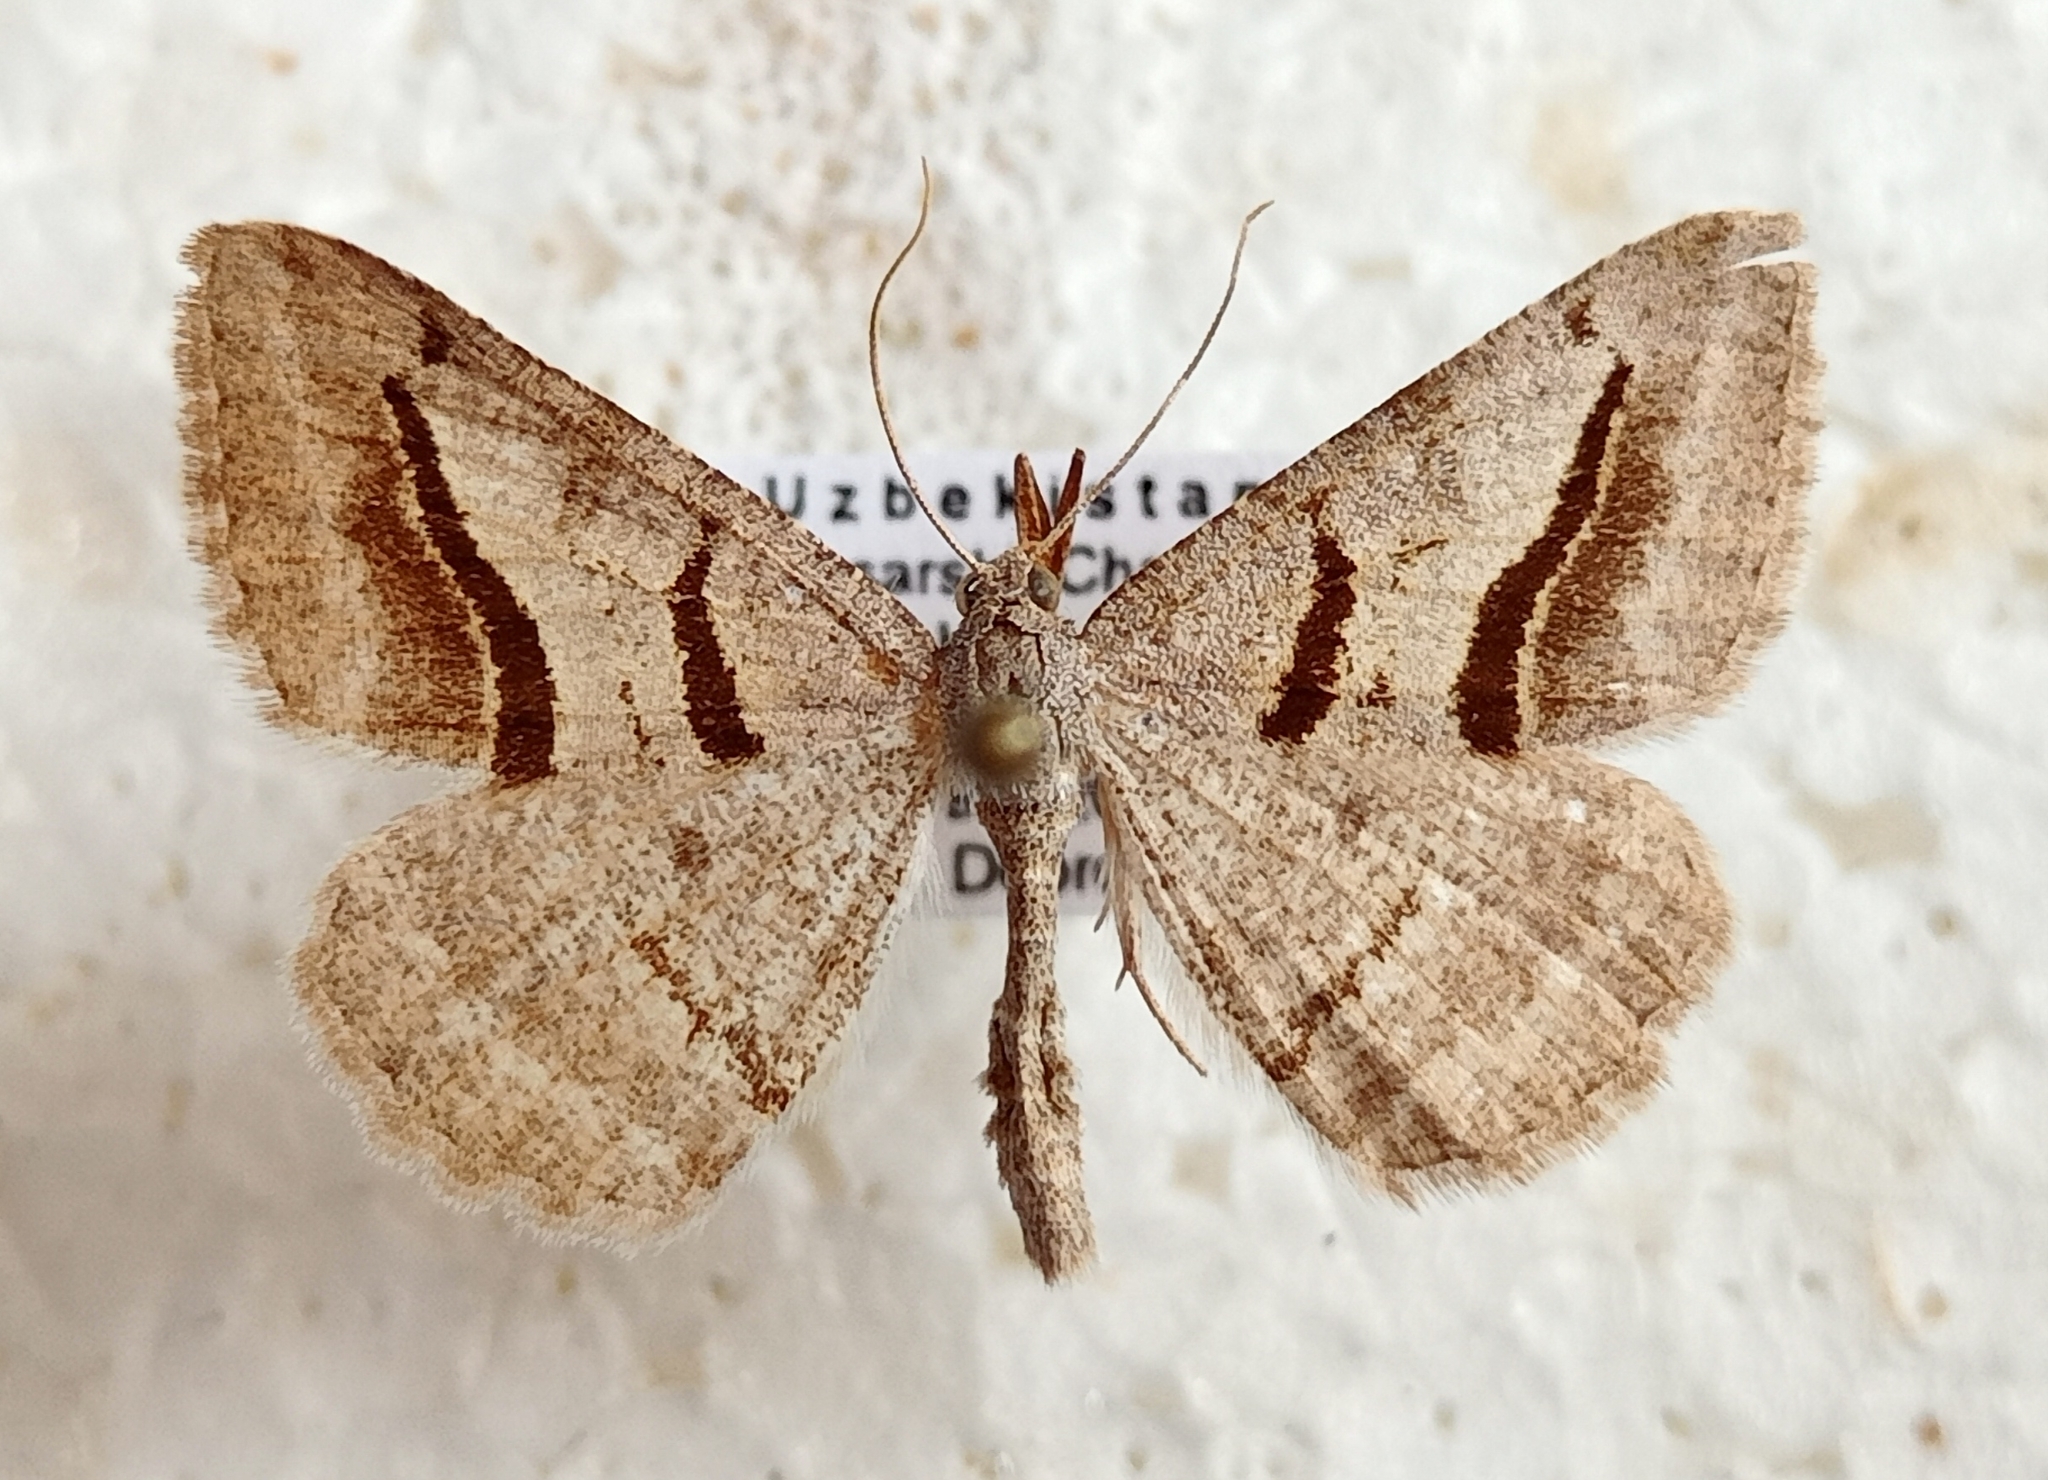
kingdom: Animalia
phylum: Arthropoda
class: Insecta
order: Lepidoptera
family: Geometridae
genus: Digrammia
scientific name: Digrammia rippertaria
